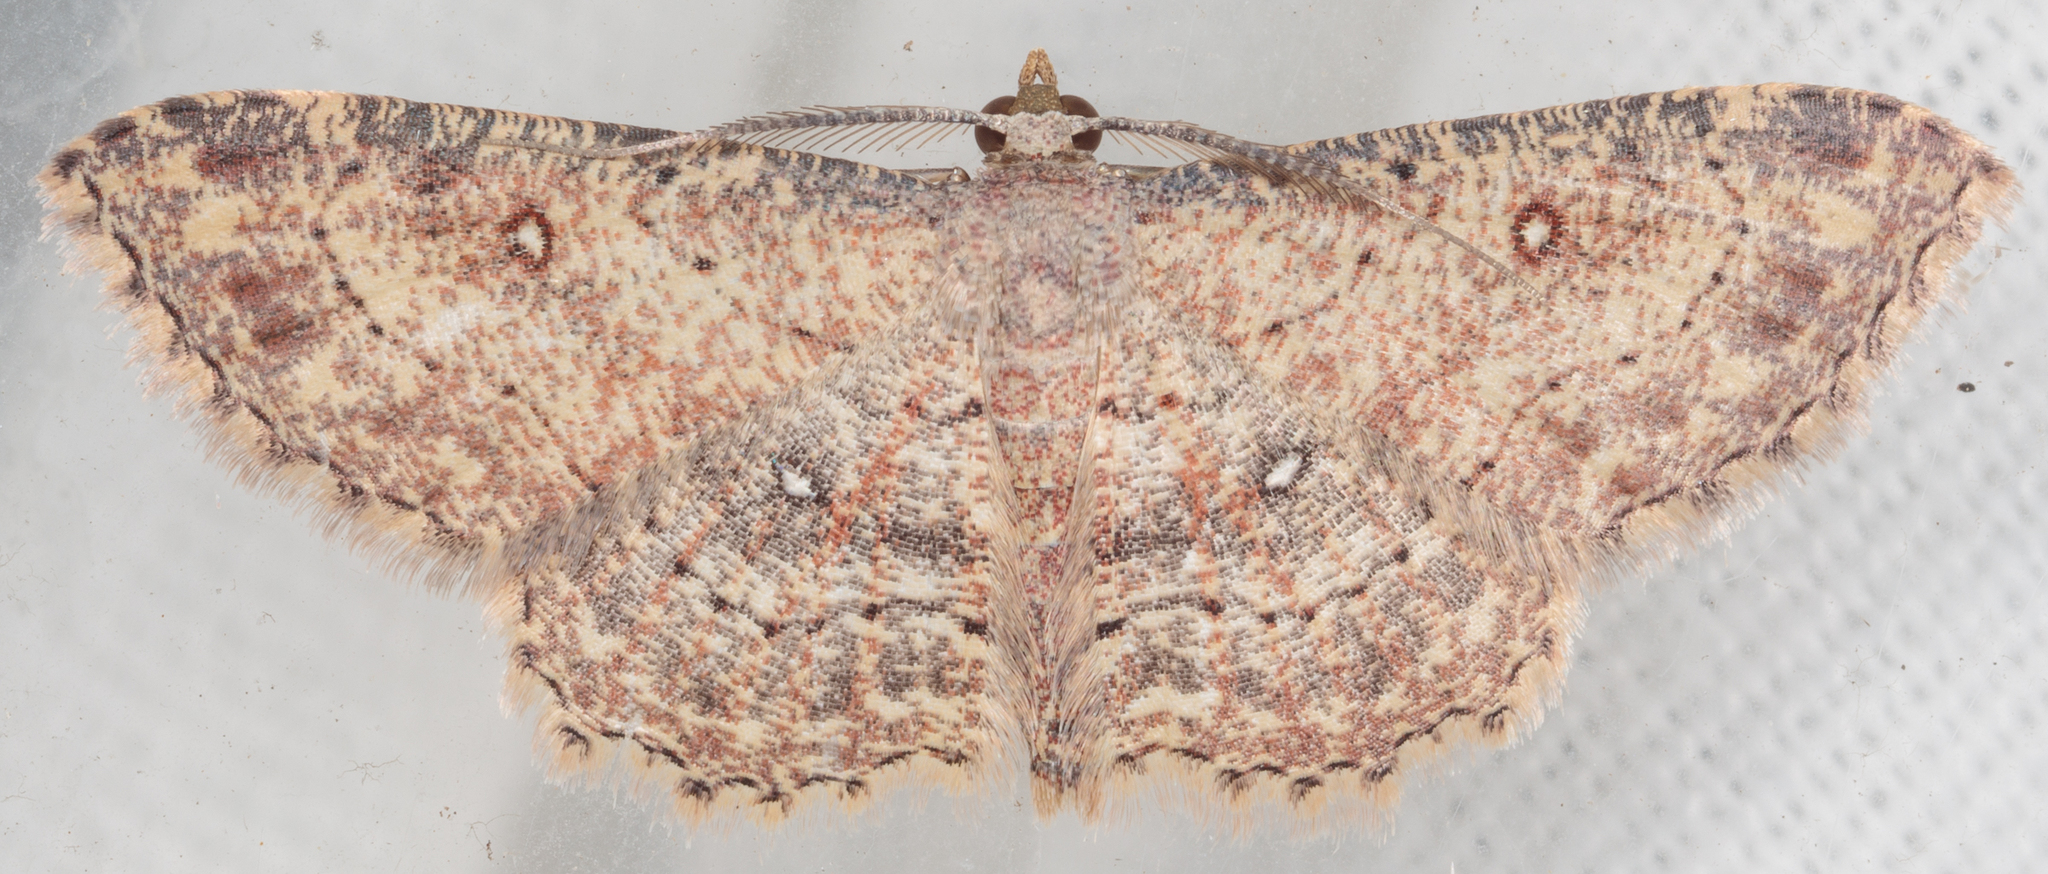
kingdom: Animalia
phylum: Arthropoda
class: Insecta
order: Lepidoptera
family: Geometridae
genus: Cyclophora
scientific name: Cyclophora nanaria
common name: Cankerworm
